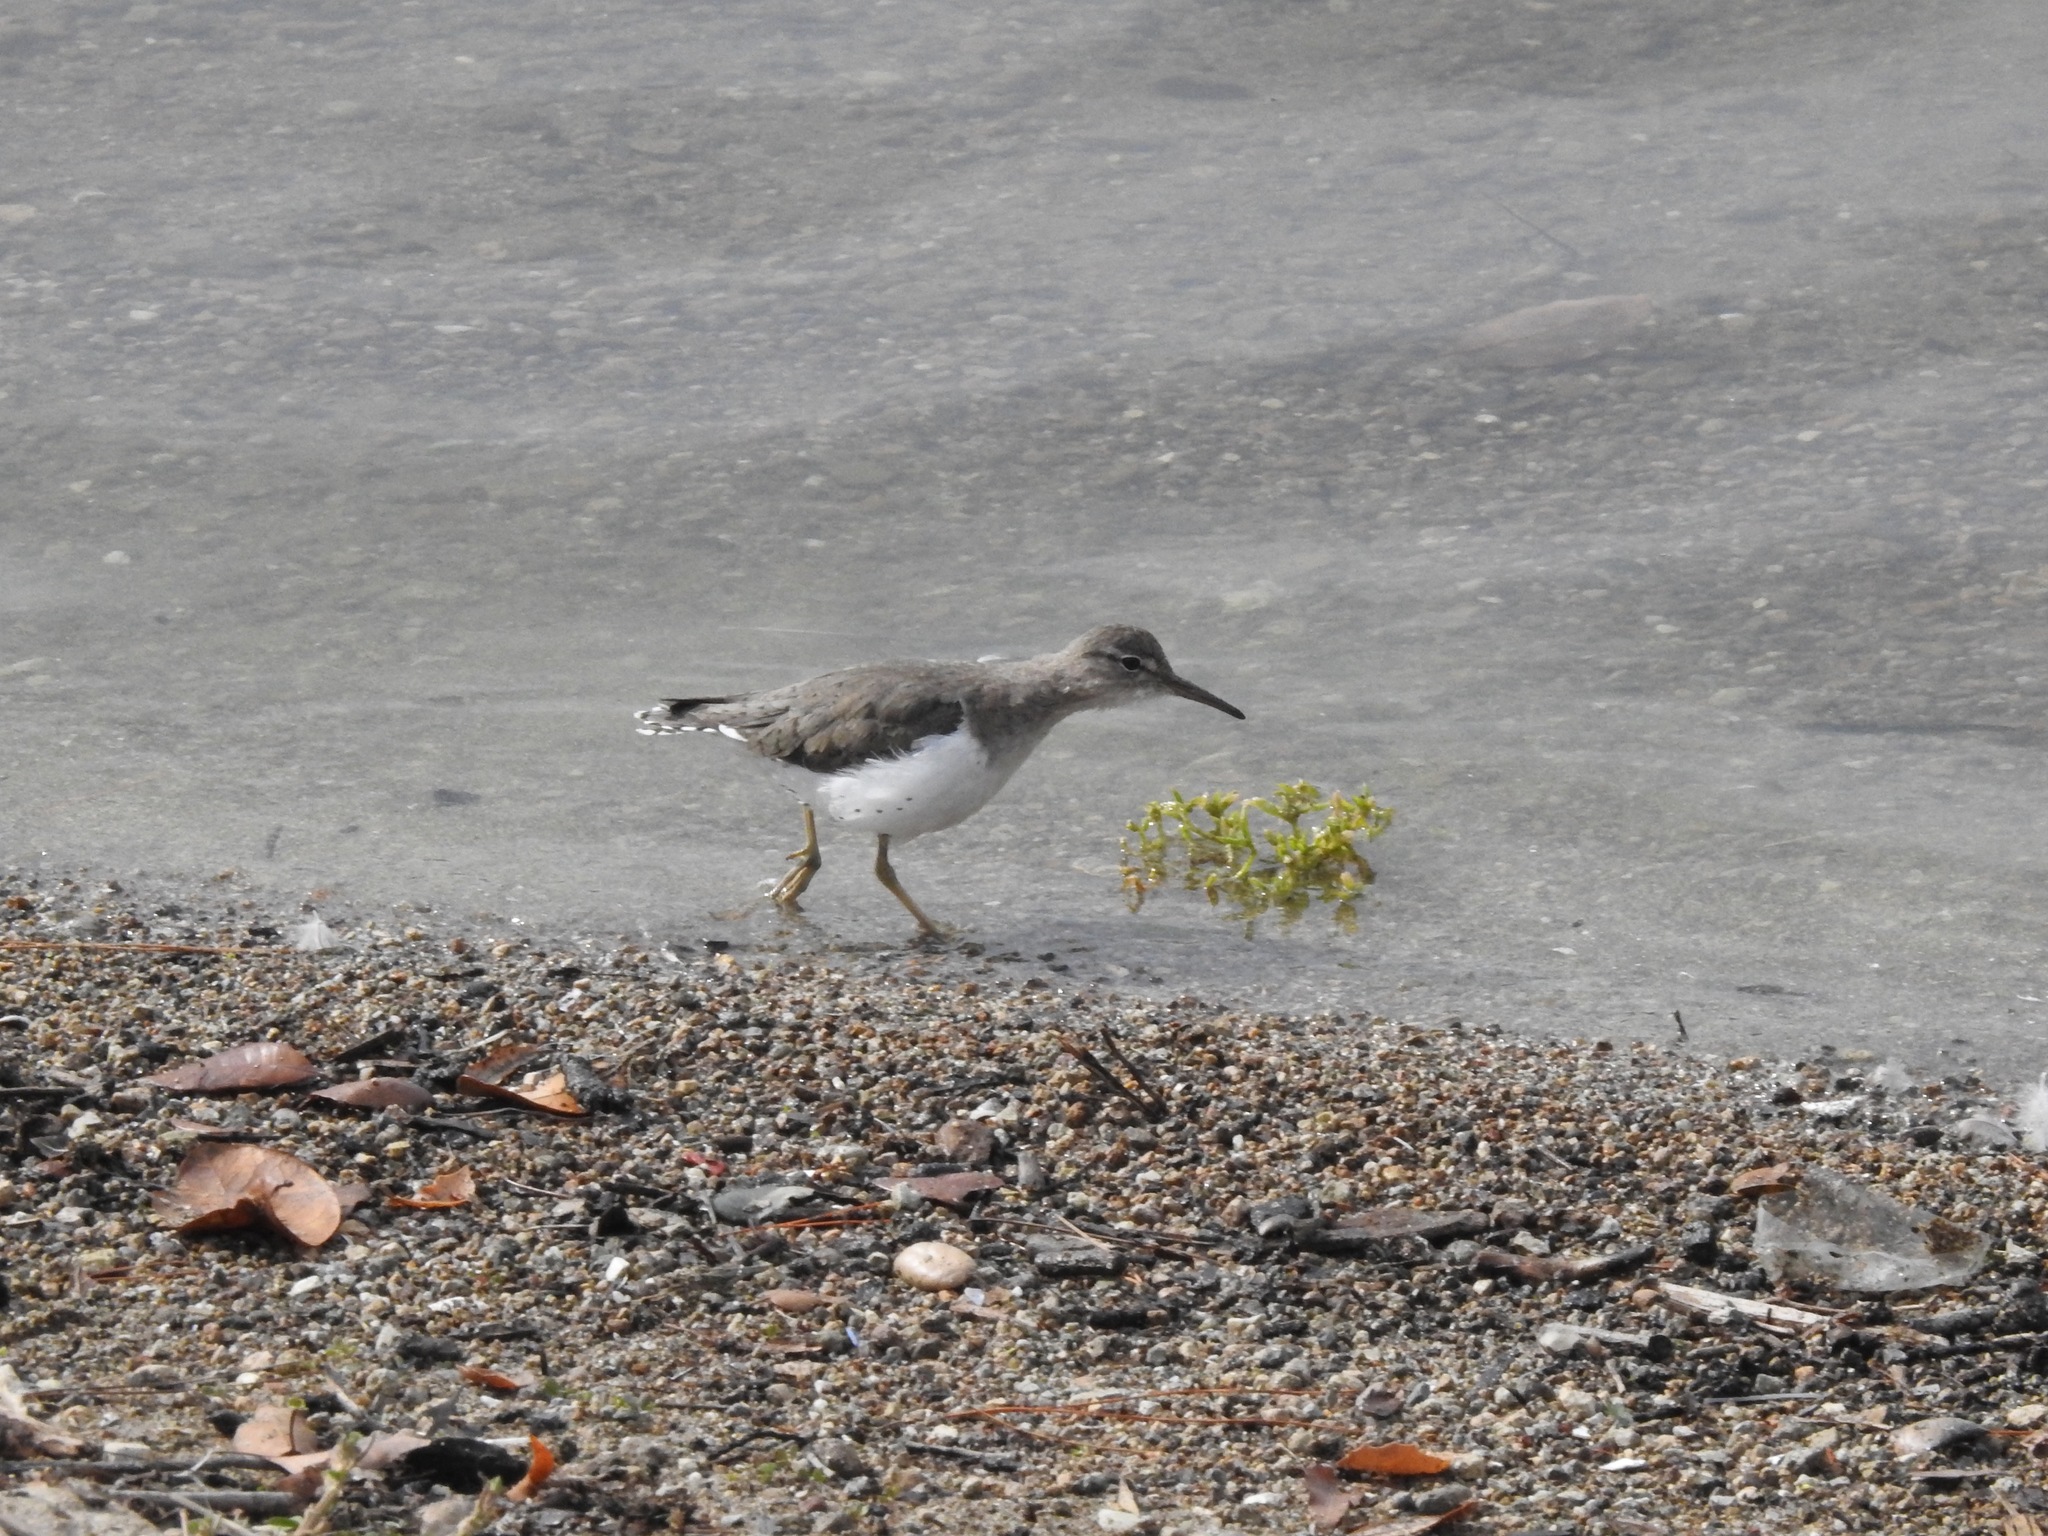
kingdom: Animalia
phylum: Chordata
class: Aves
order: Charadriiformes
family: Scolopacidae
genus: Actitis
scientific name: Actitis macularius
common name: Spotted sandpiper
